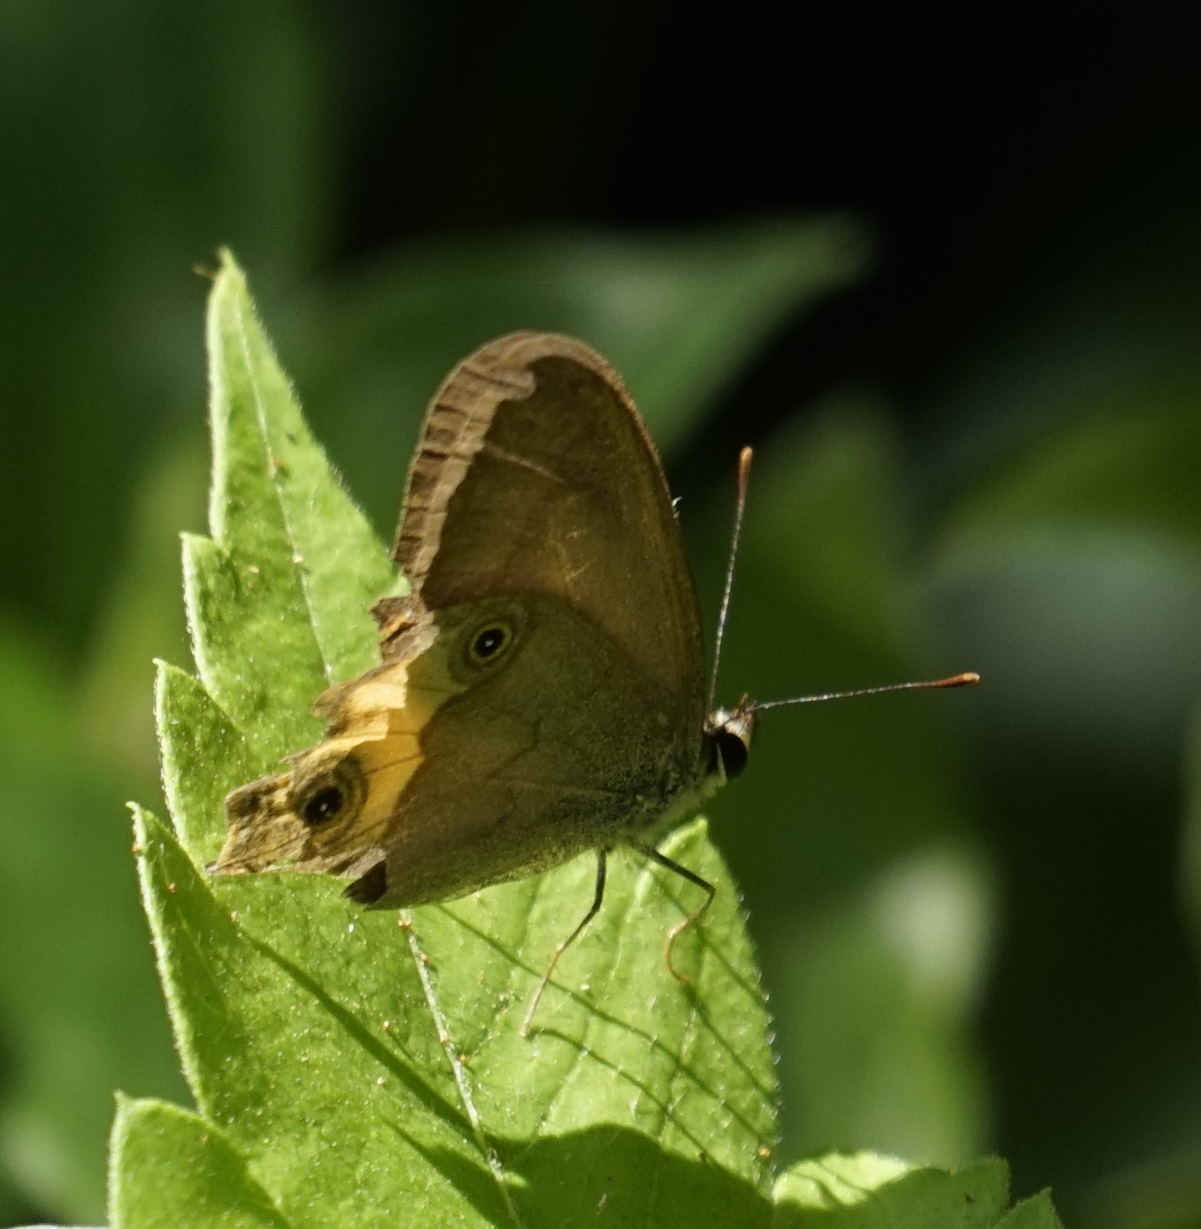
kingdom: Animalia
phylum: Arthropoda
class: Insecta
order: Lepidoptera
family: Nymphalidae
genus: Hypocysta
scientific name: Hypocysta metirius
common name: Brown ringlet
